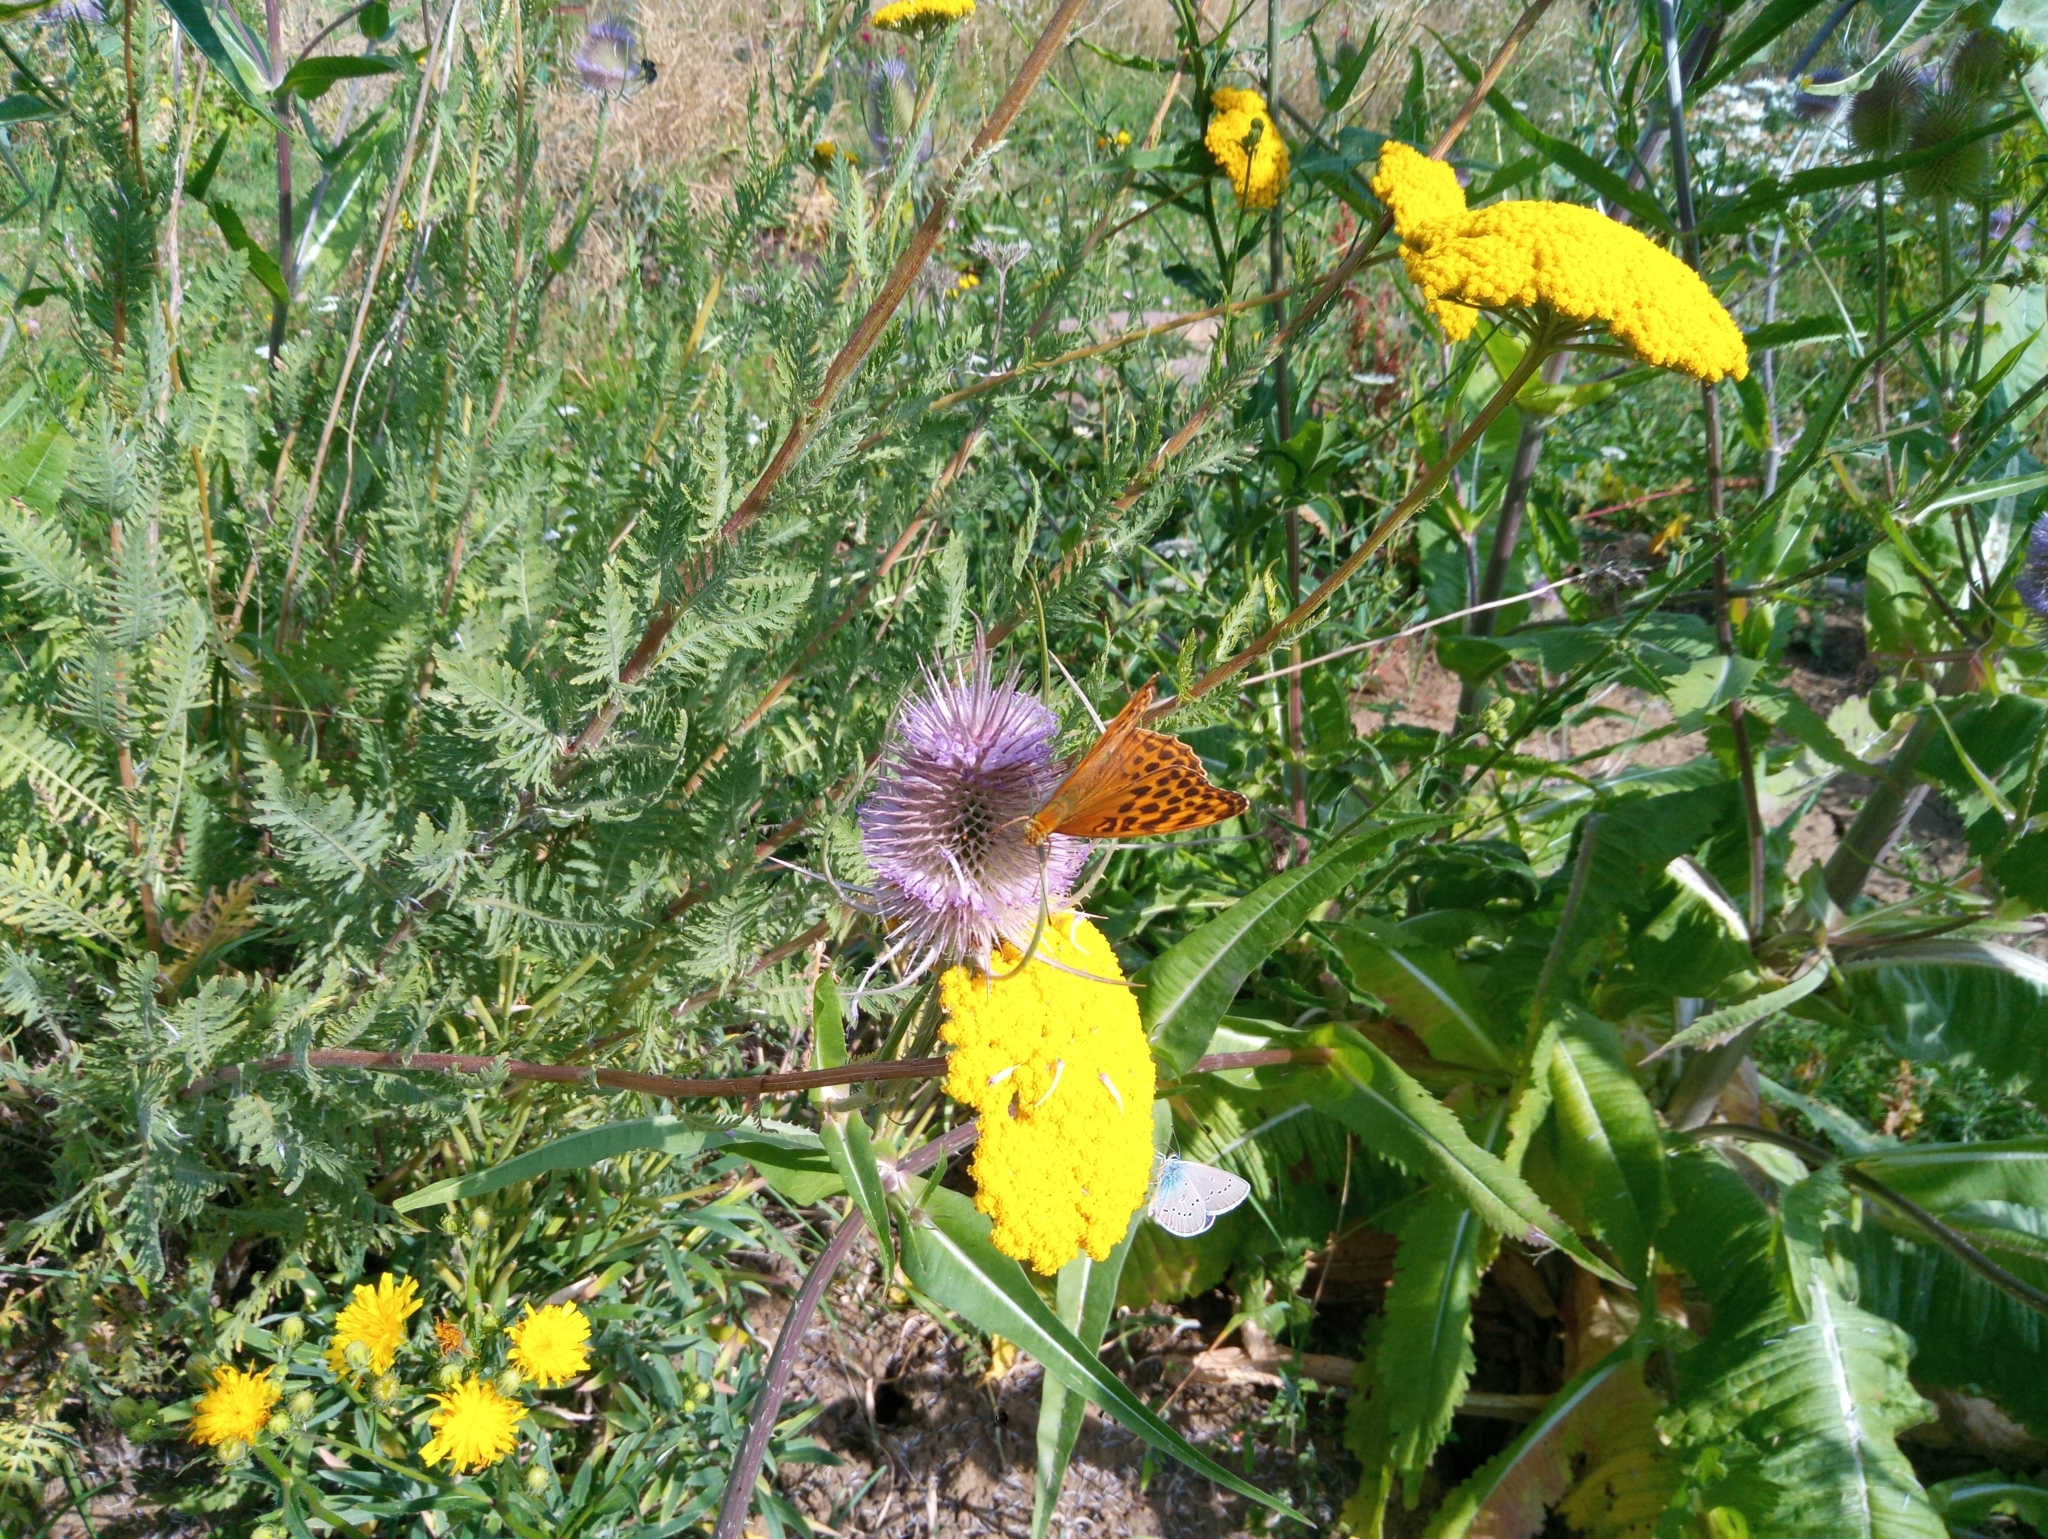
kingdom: Animalia
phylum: Arthropoda
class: Insecta
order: Lepidoptera
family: Nymphalidae
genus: Argynnis
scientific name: Argynnis paphia
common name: Silver-washed fritillary
